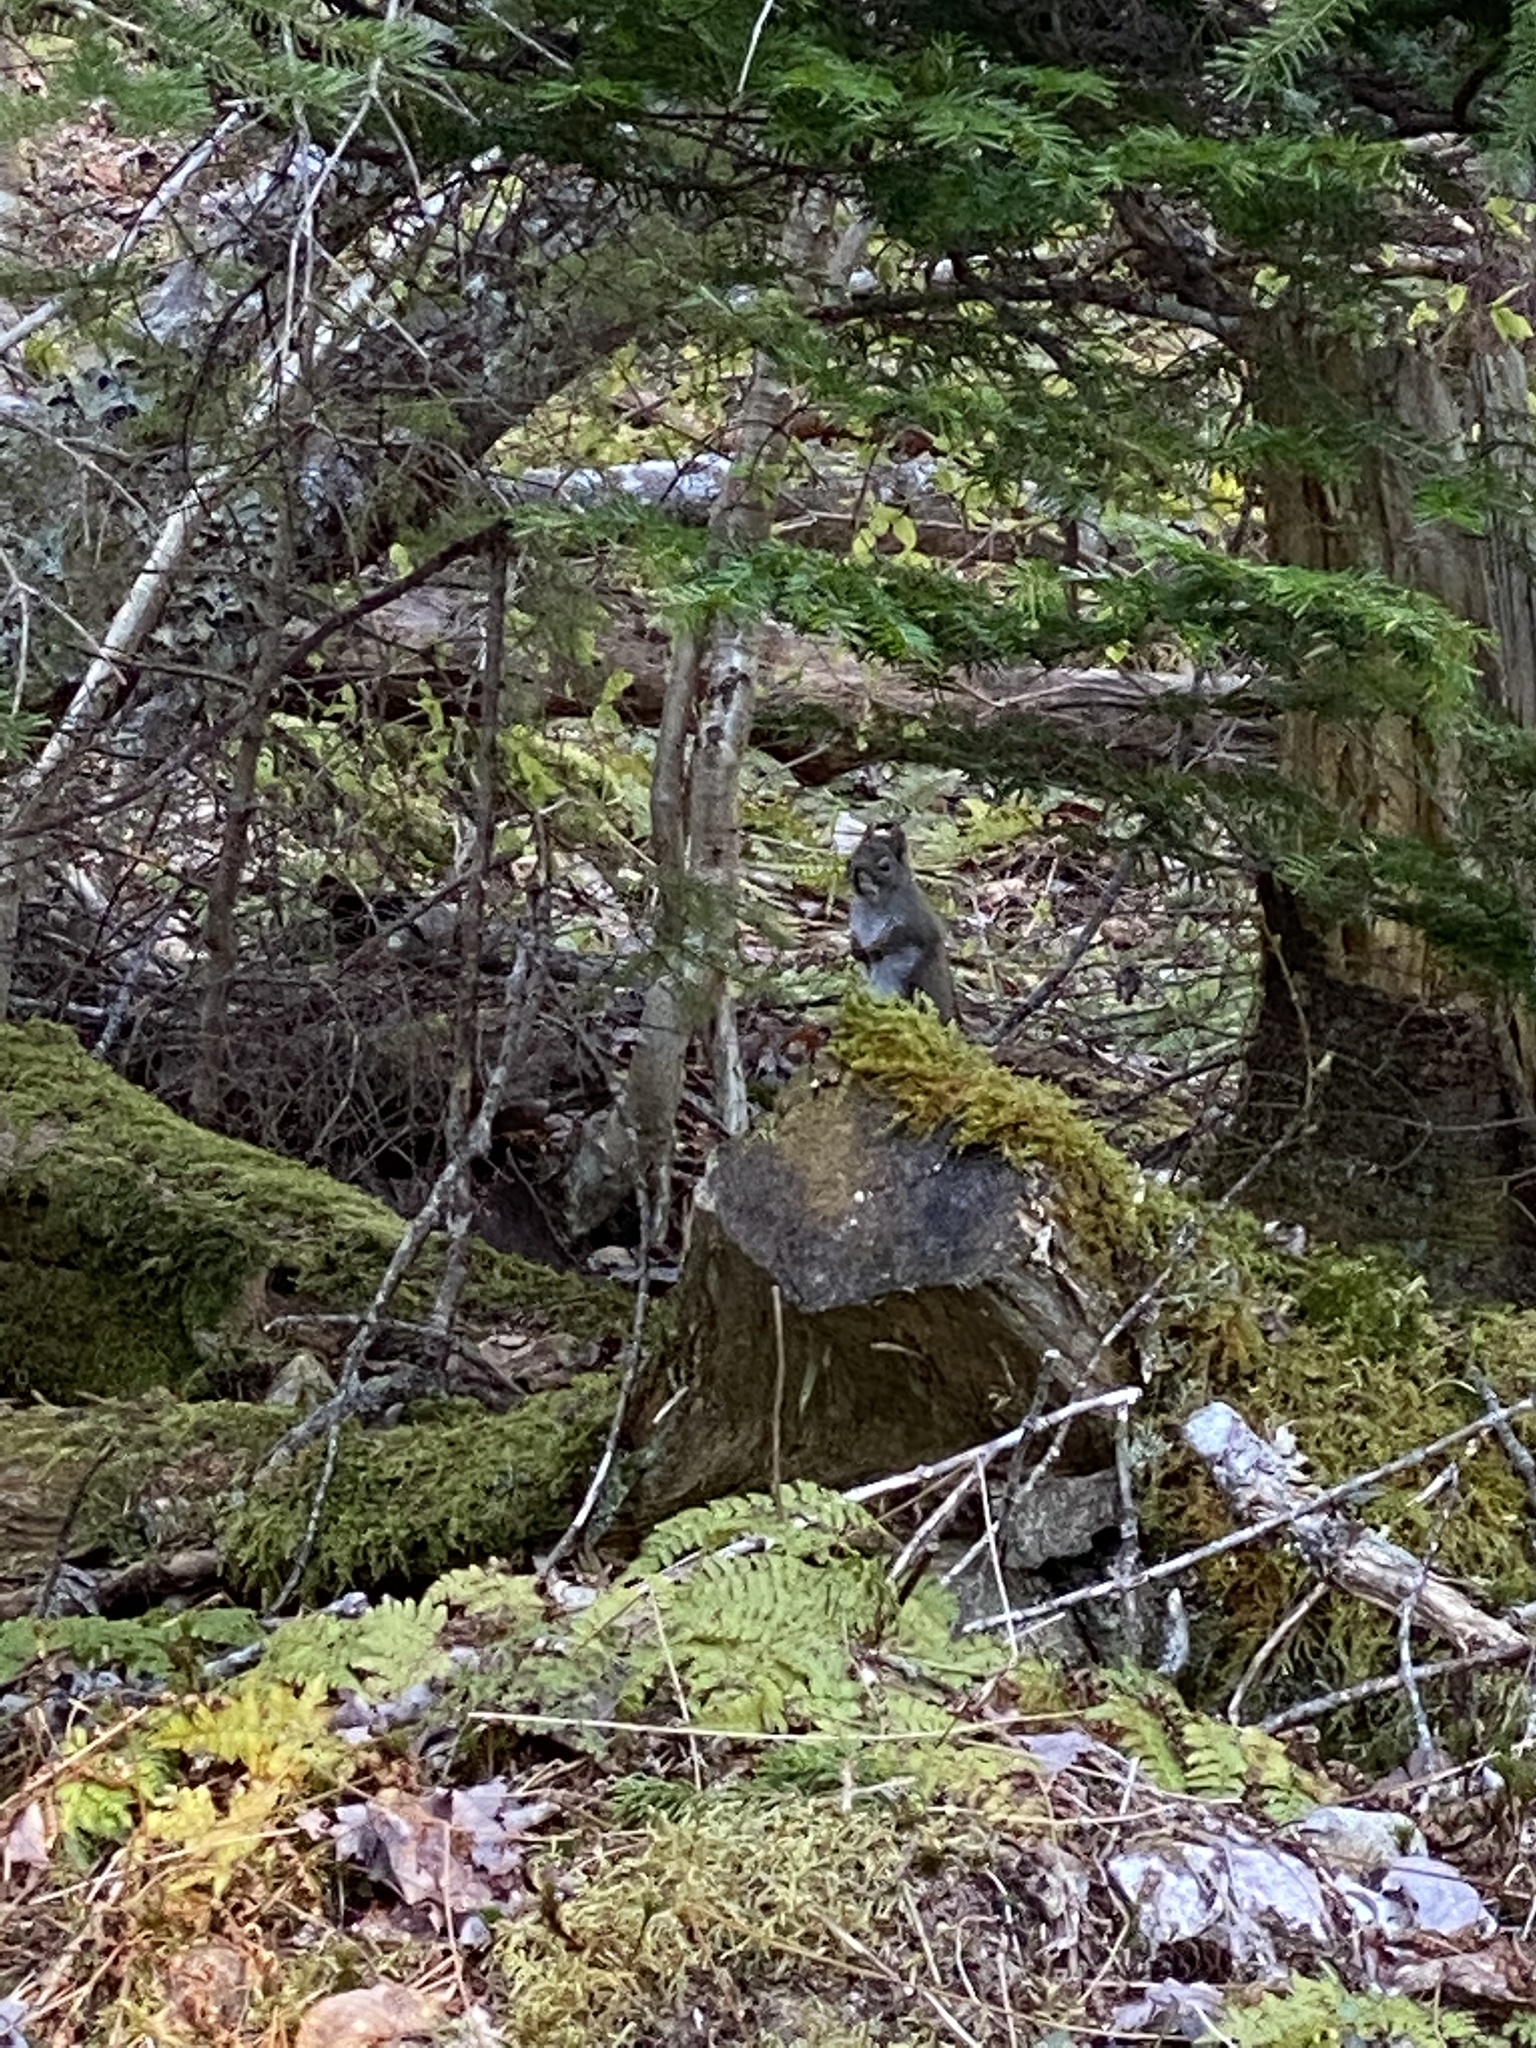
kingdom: Animalia
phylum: Chordata
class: Mammalia
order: Rodentia
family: Sciuridae
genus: Tamiasciurus
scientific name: Tamiasciurus hudsonicus
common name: Red squirrel
